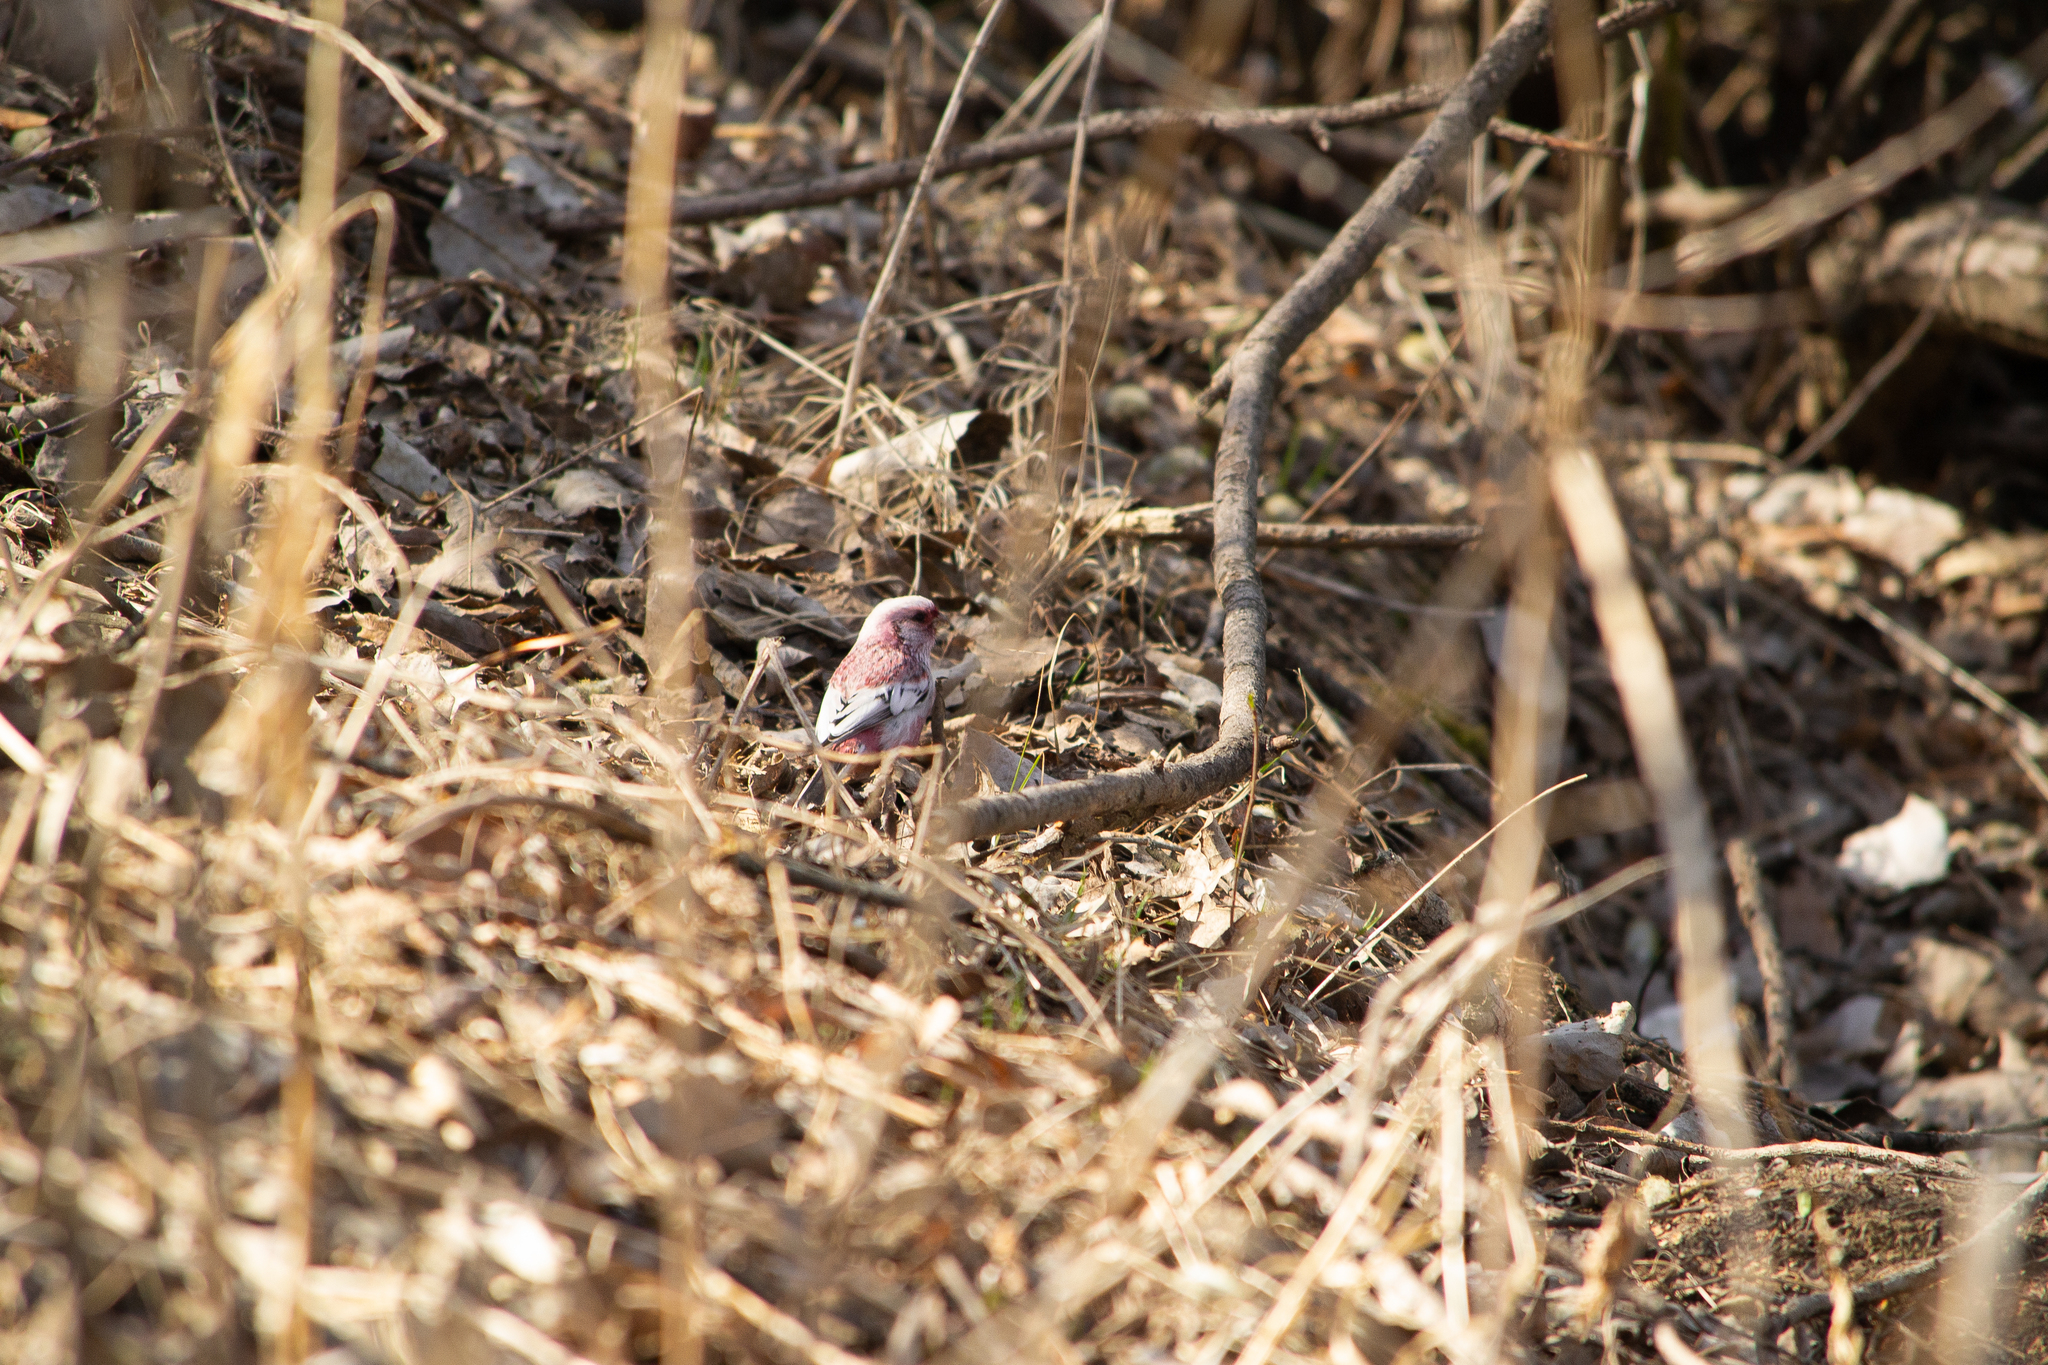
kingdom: Animalia
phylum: Chordata
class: Aves
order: Passeriformes
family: Fringillidae
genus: Carpodacus
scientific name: Carpodacus sibiricus
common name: Long-tailed rosefinch
